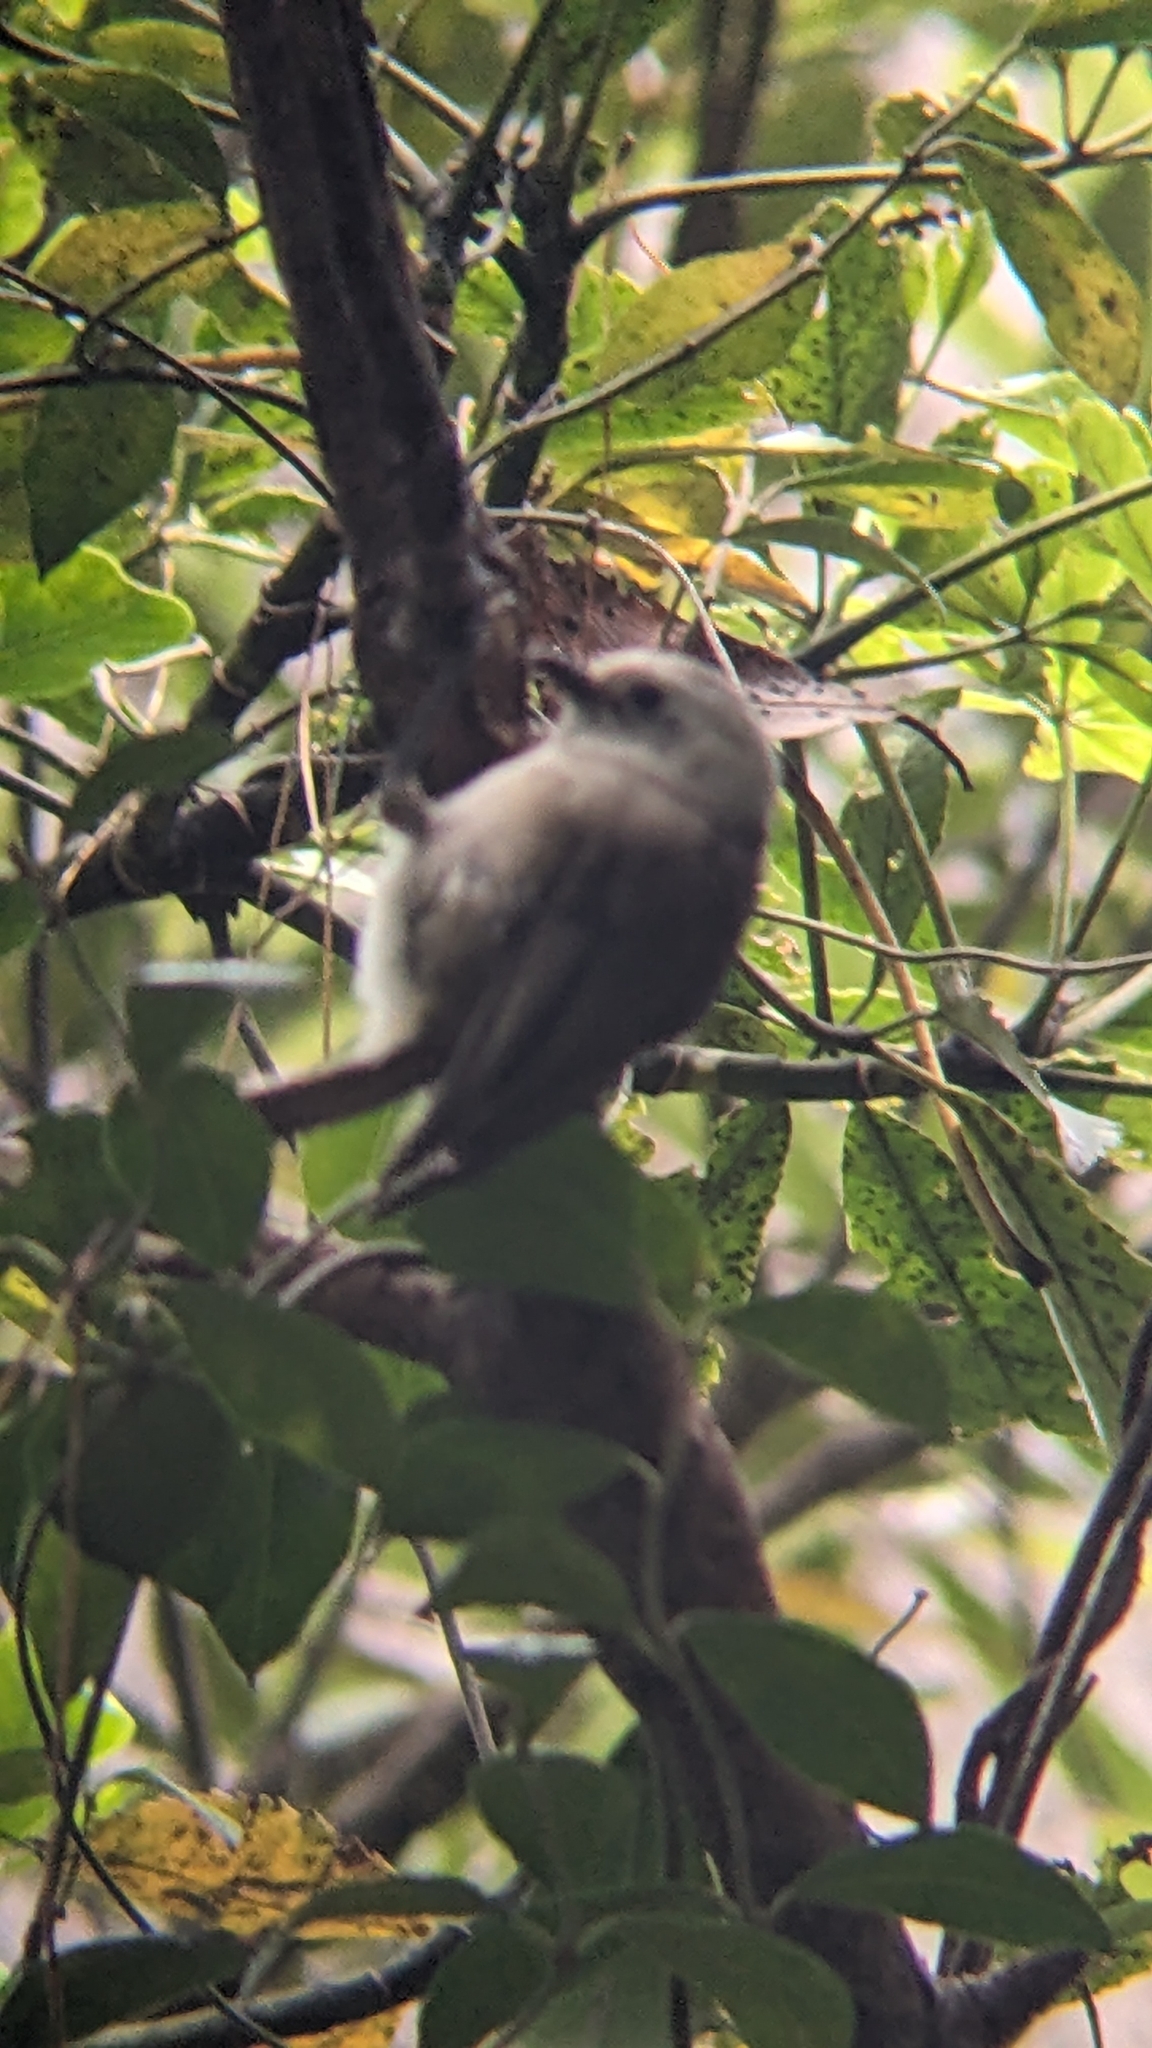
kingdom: Animalia
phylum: Chordata
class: Aves
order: Passeriformes
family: Acanthizidae
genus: Mohoua
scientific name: Mohoua albicilla
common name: Whitehead
